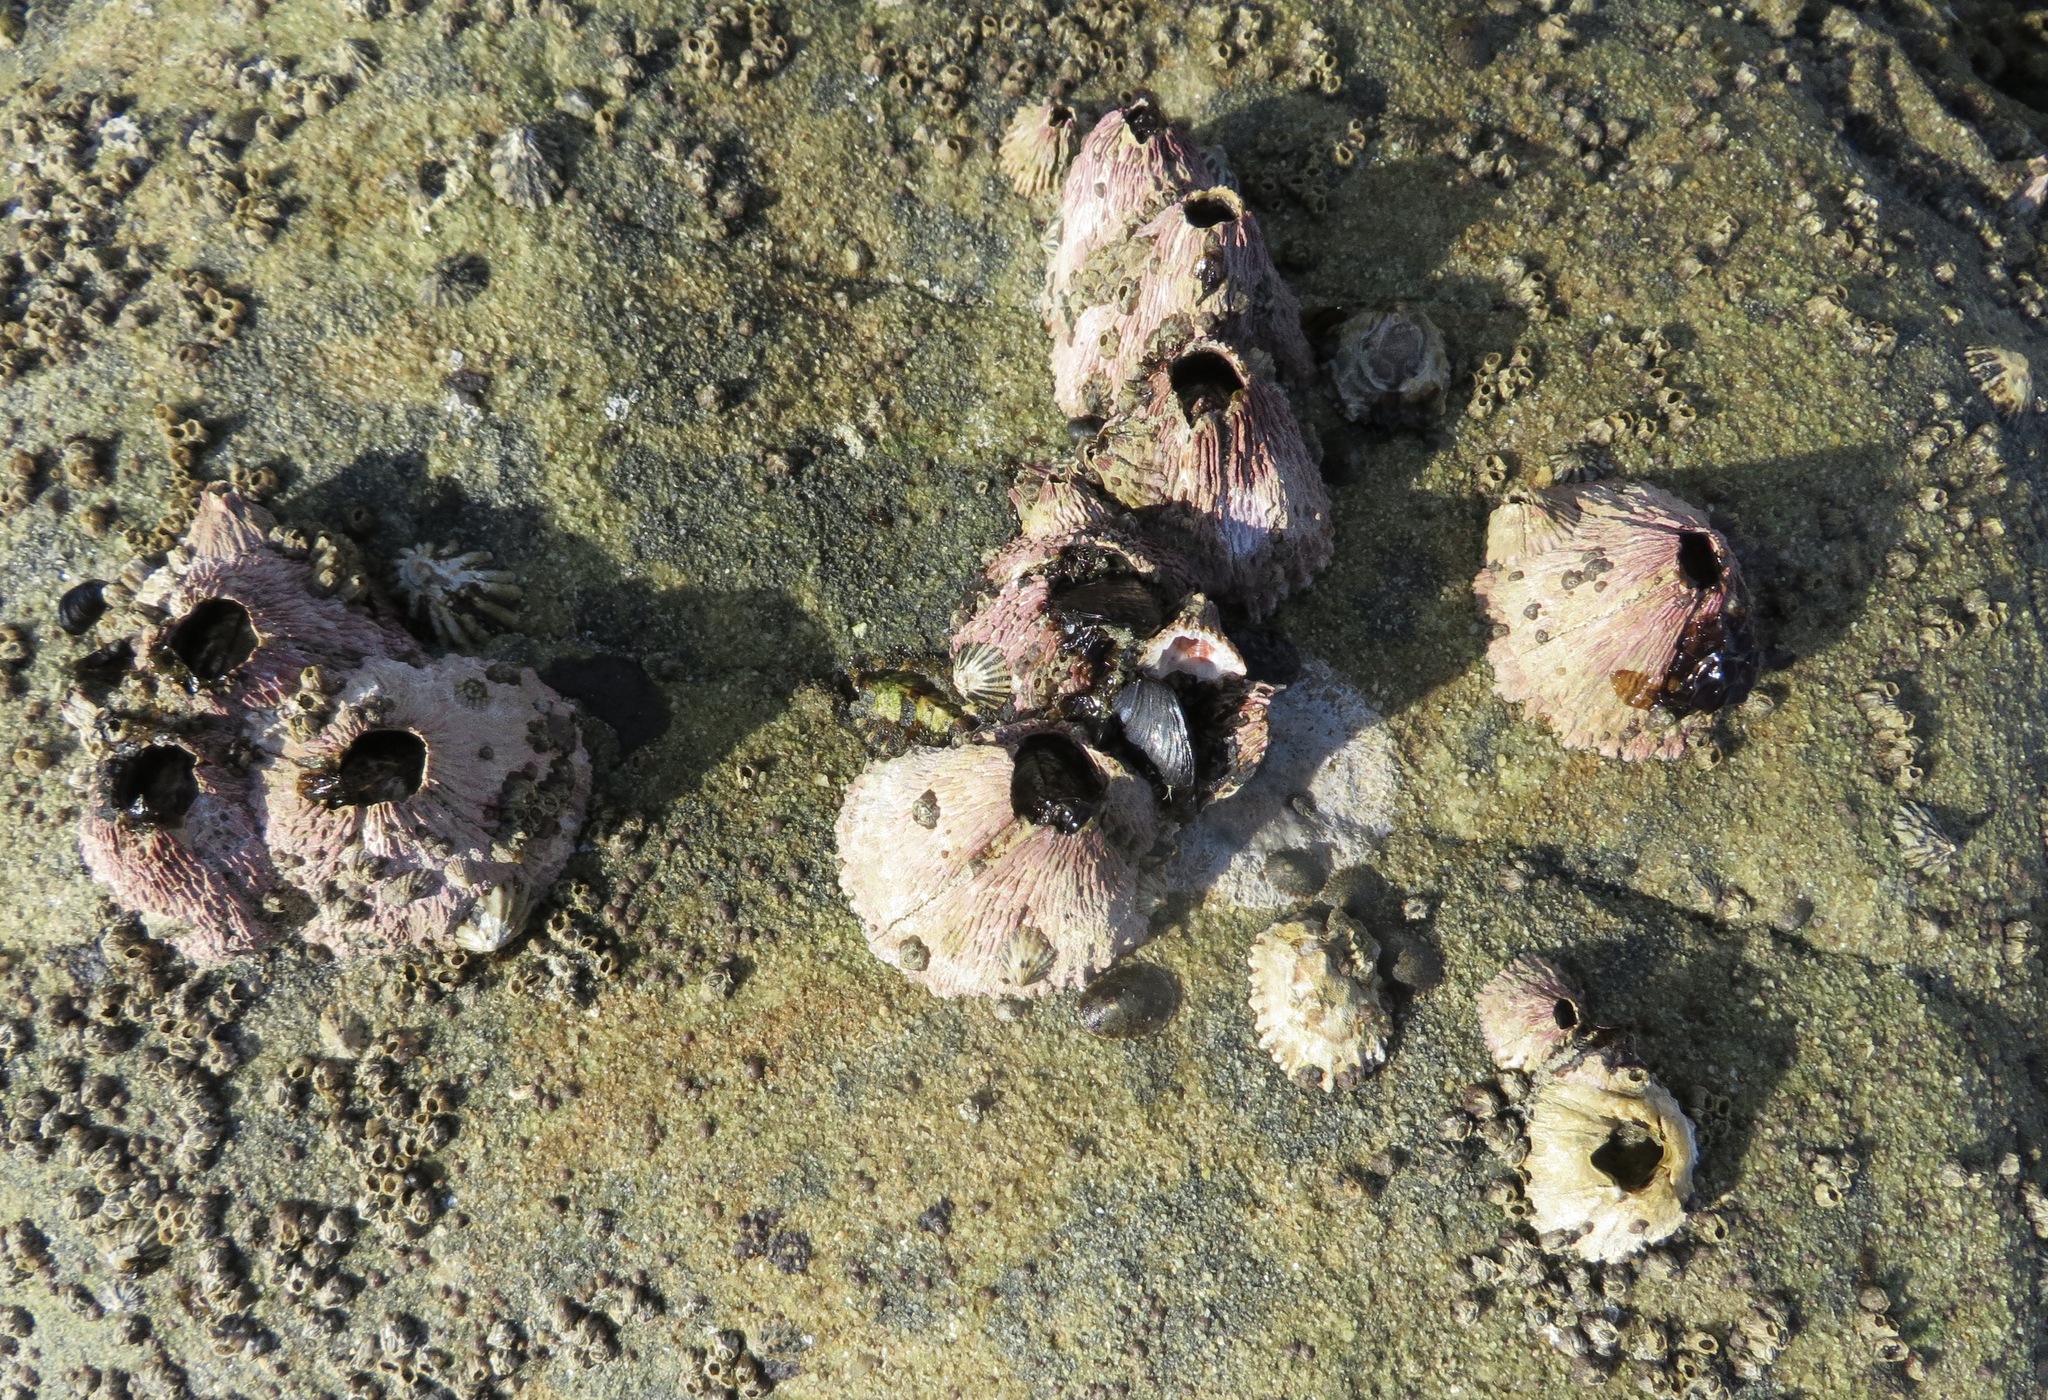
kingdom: Animalia
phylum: Arthropoda
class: Maxillopoda
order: Sessilia
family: Tetraclitidae
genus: Tetraclita
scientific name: Tetraclita rubescens
